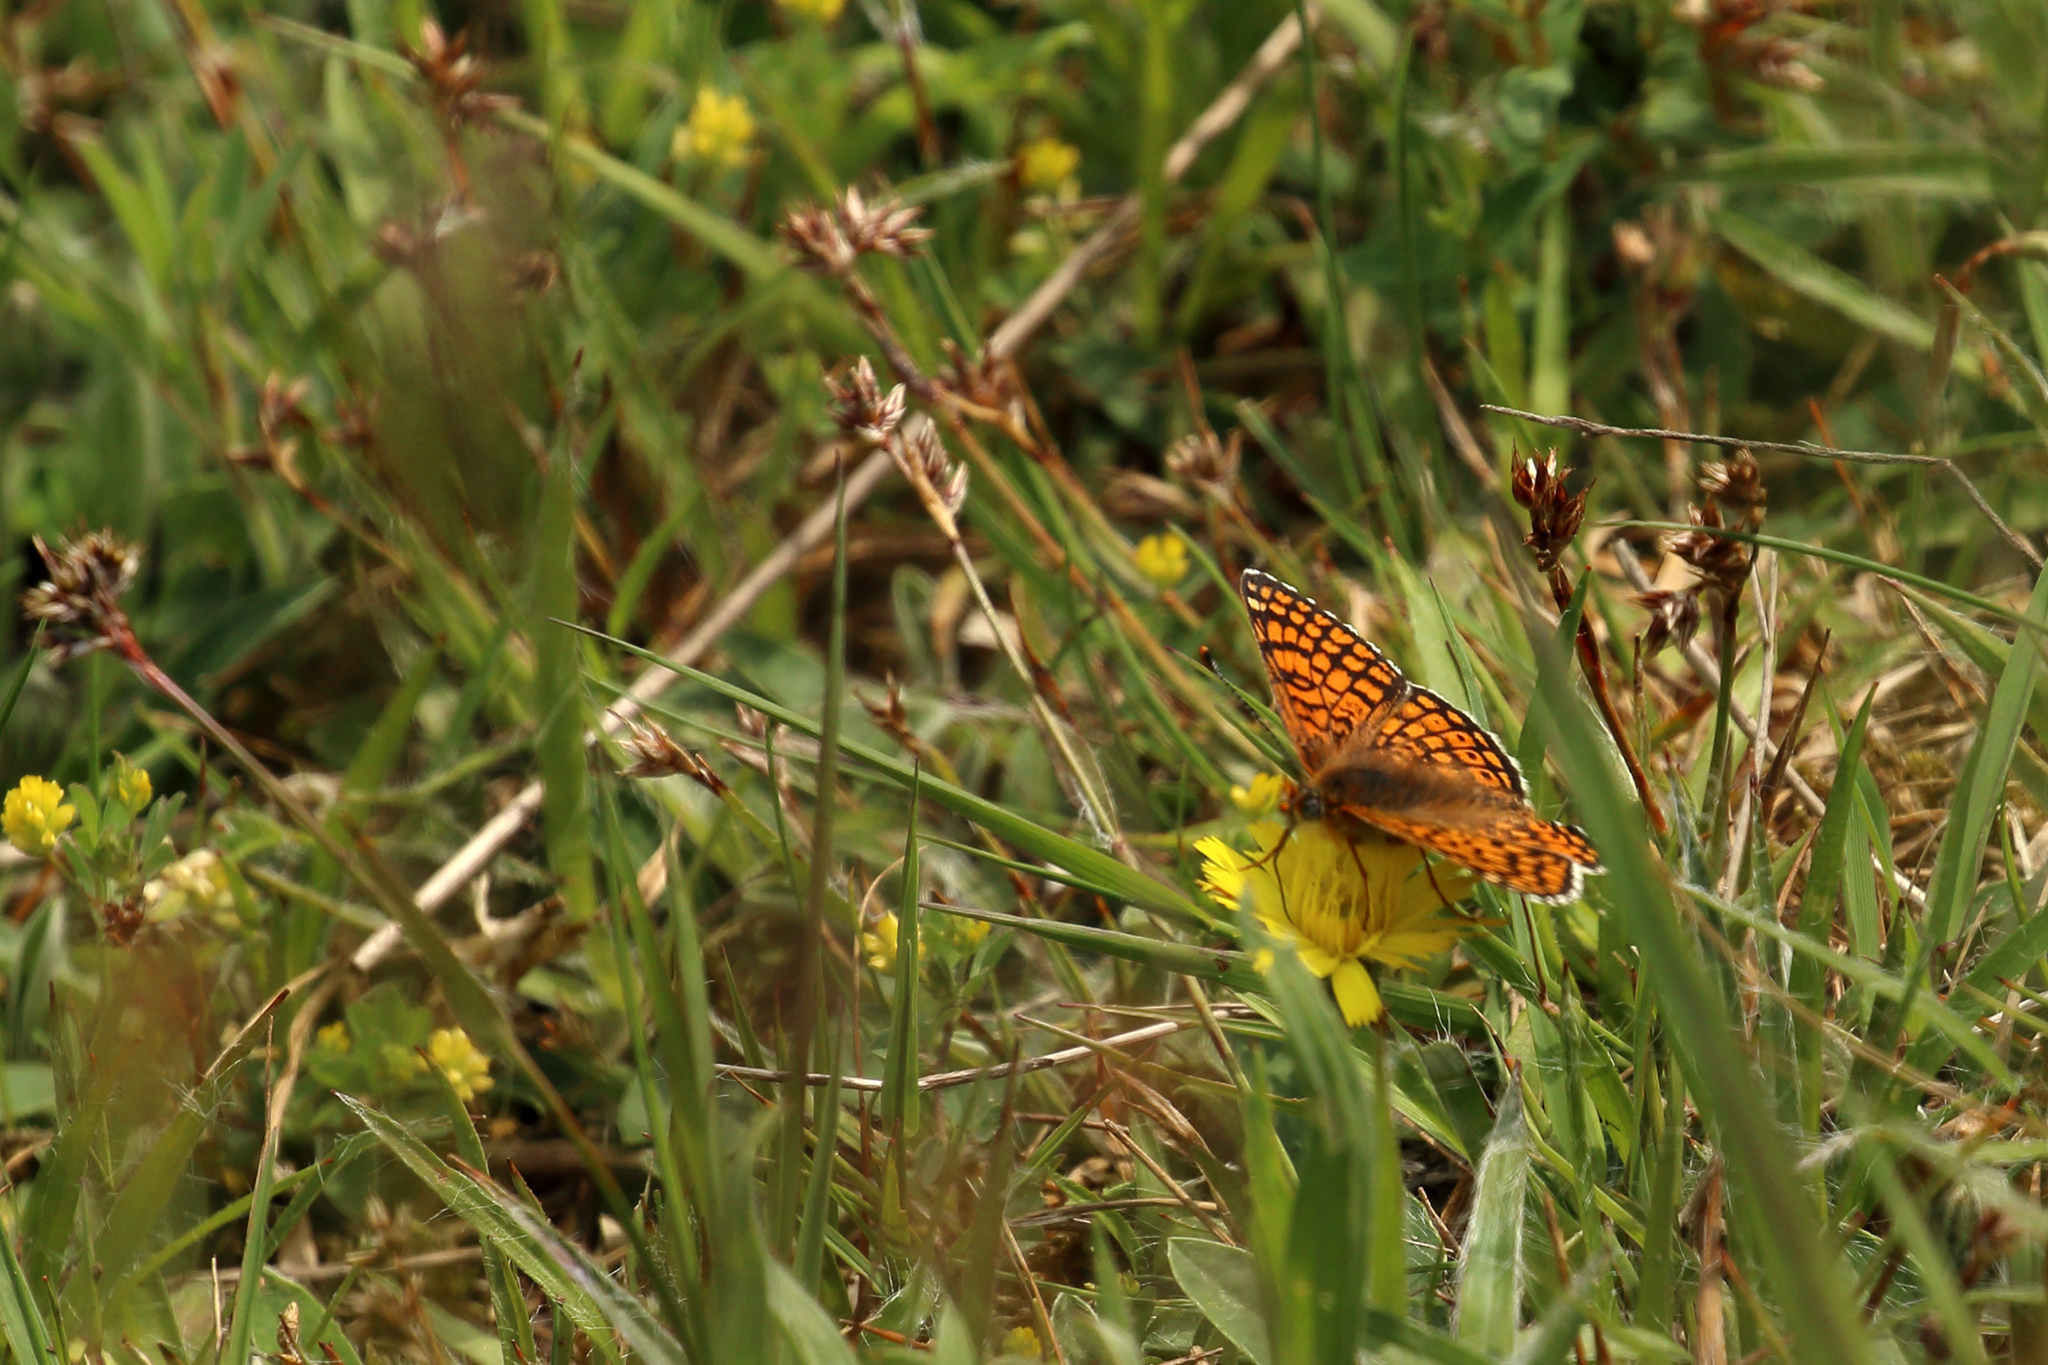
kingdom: Animalia
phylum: Arthropoda
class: Insecta
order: Lepidoptera
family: Nymphalidae
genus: Melitaea
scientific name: Melitaea cinxia
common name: Glanville fritillary
